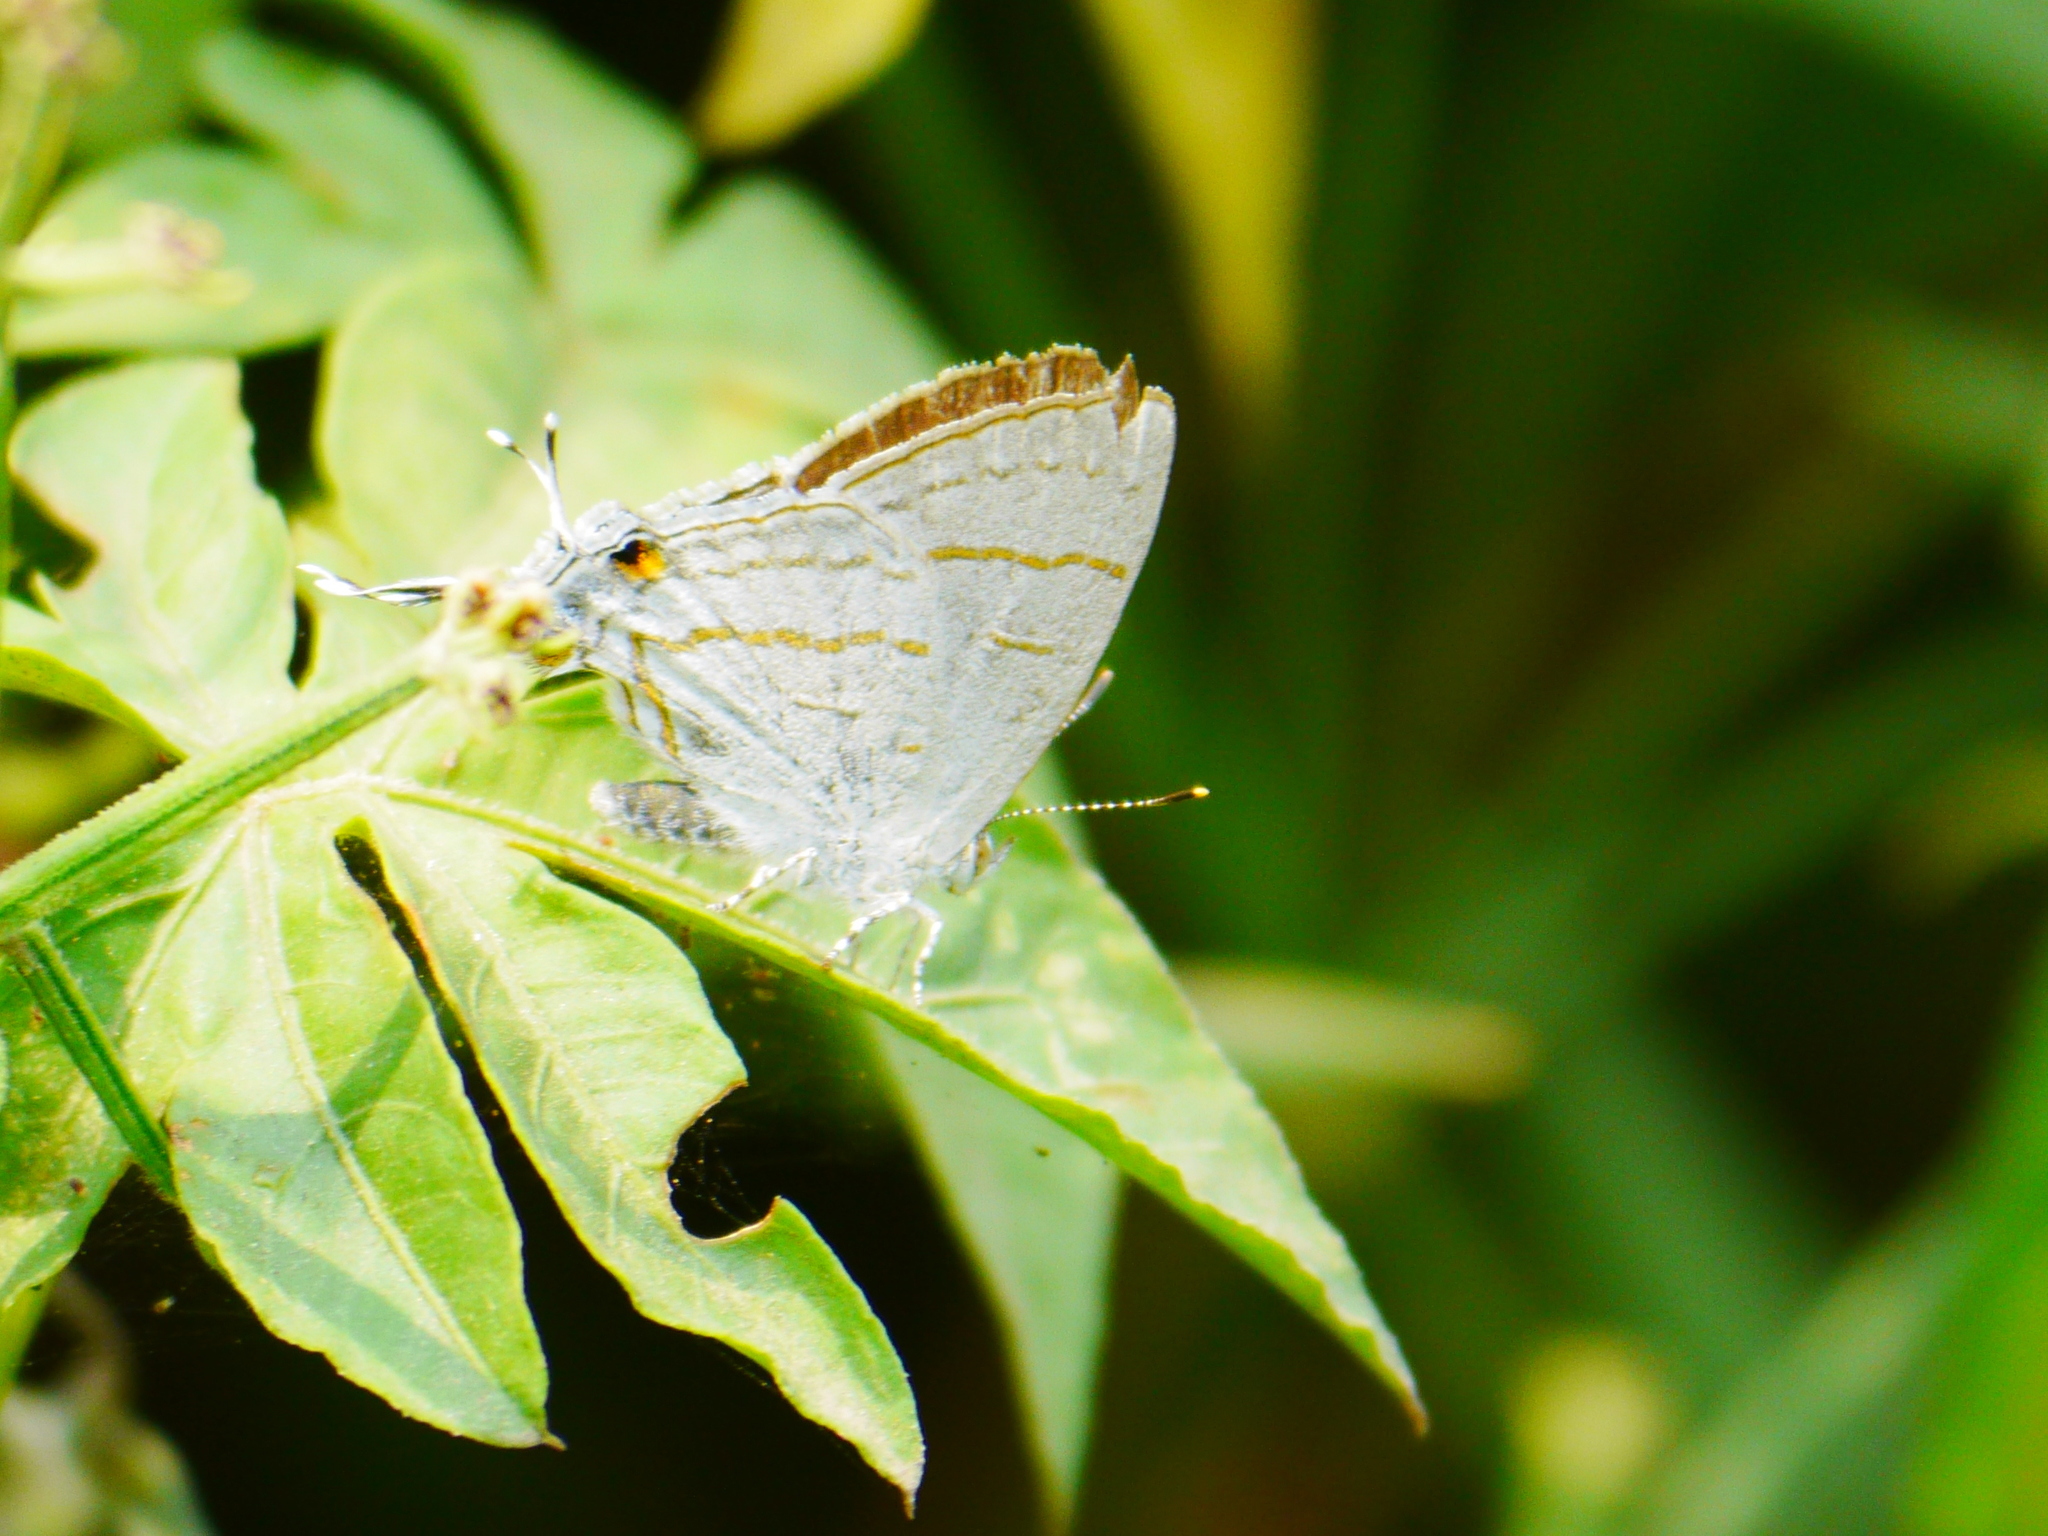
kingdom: Animalia
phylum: Arthropoda
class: Insecta
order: Lepidoptera
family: Lycaenidae
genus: Hypolycaena
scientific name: Hypolycaena philippus
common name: Common hairstreak
